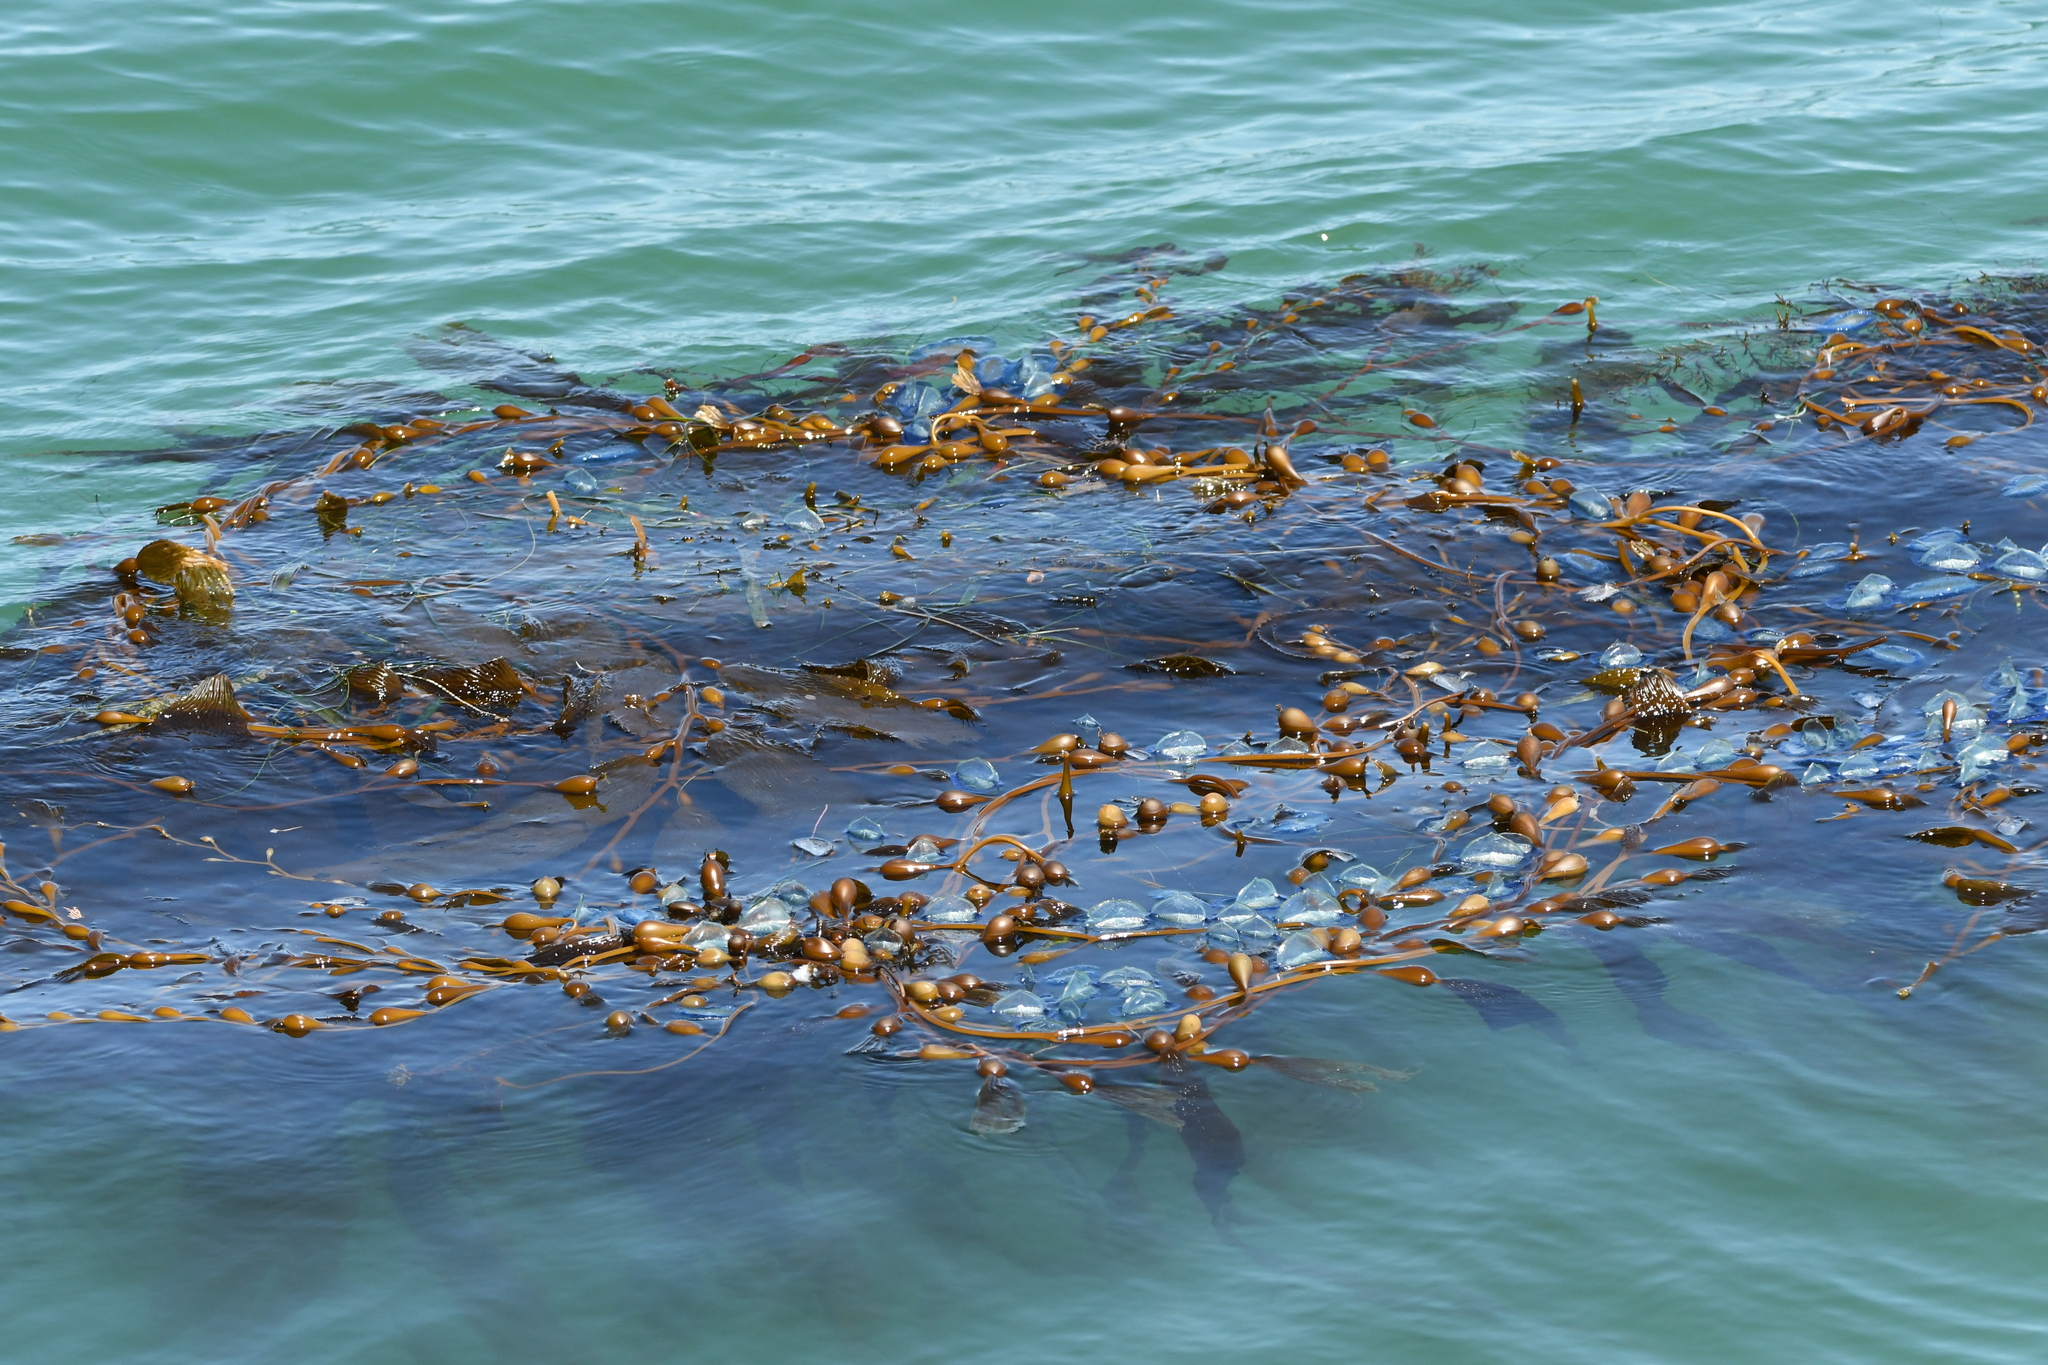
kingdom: Animalia
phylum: Cnidaria
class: Hydrozoa
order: Anthoathecata
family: Porpitidae
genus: Velella
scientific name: Velella velella
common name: By-the-wind-sailor
